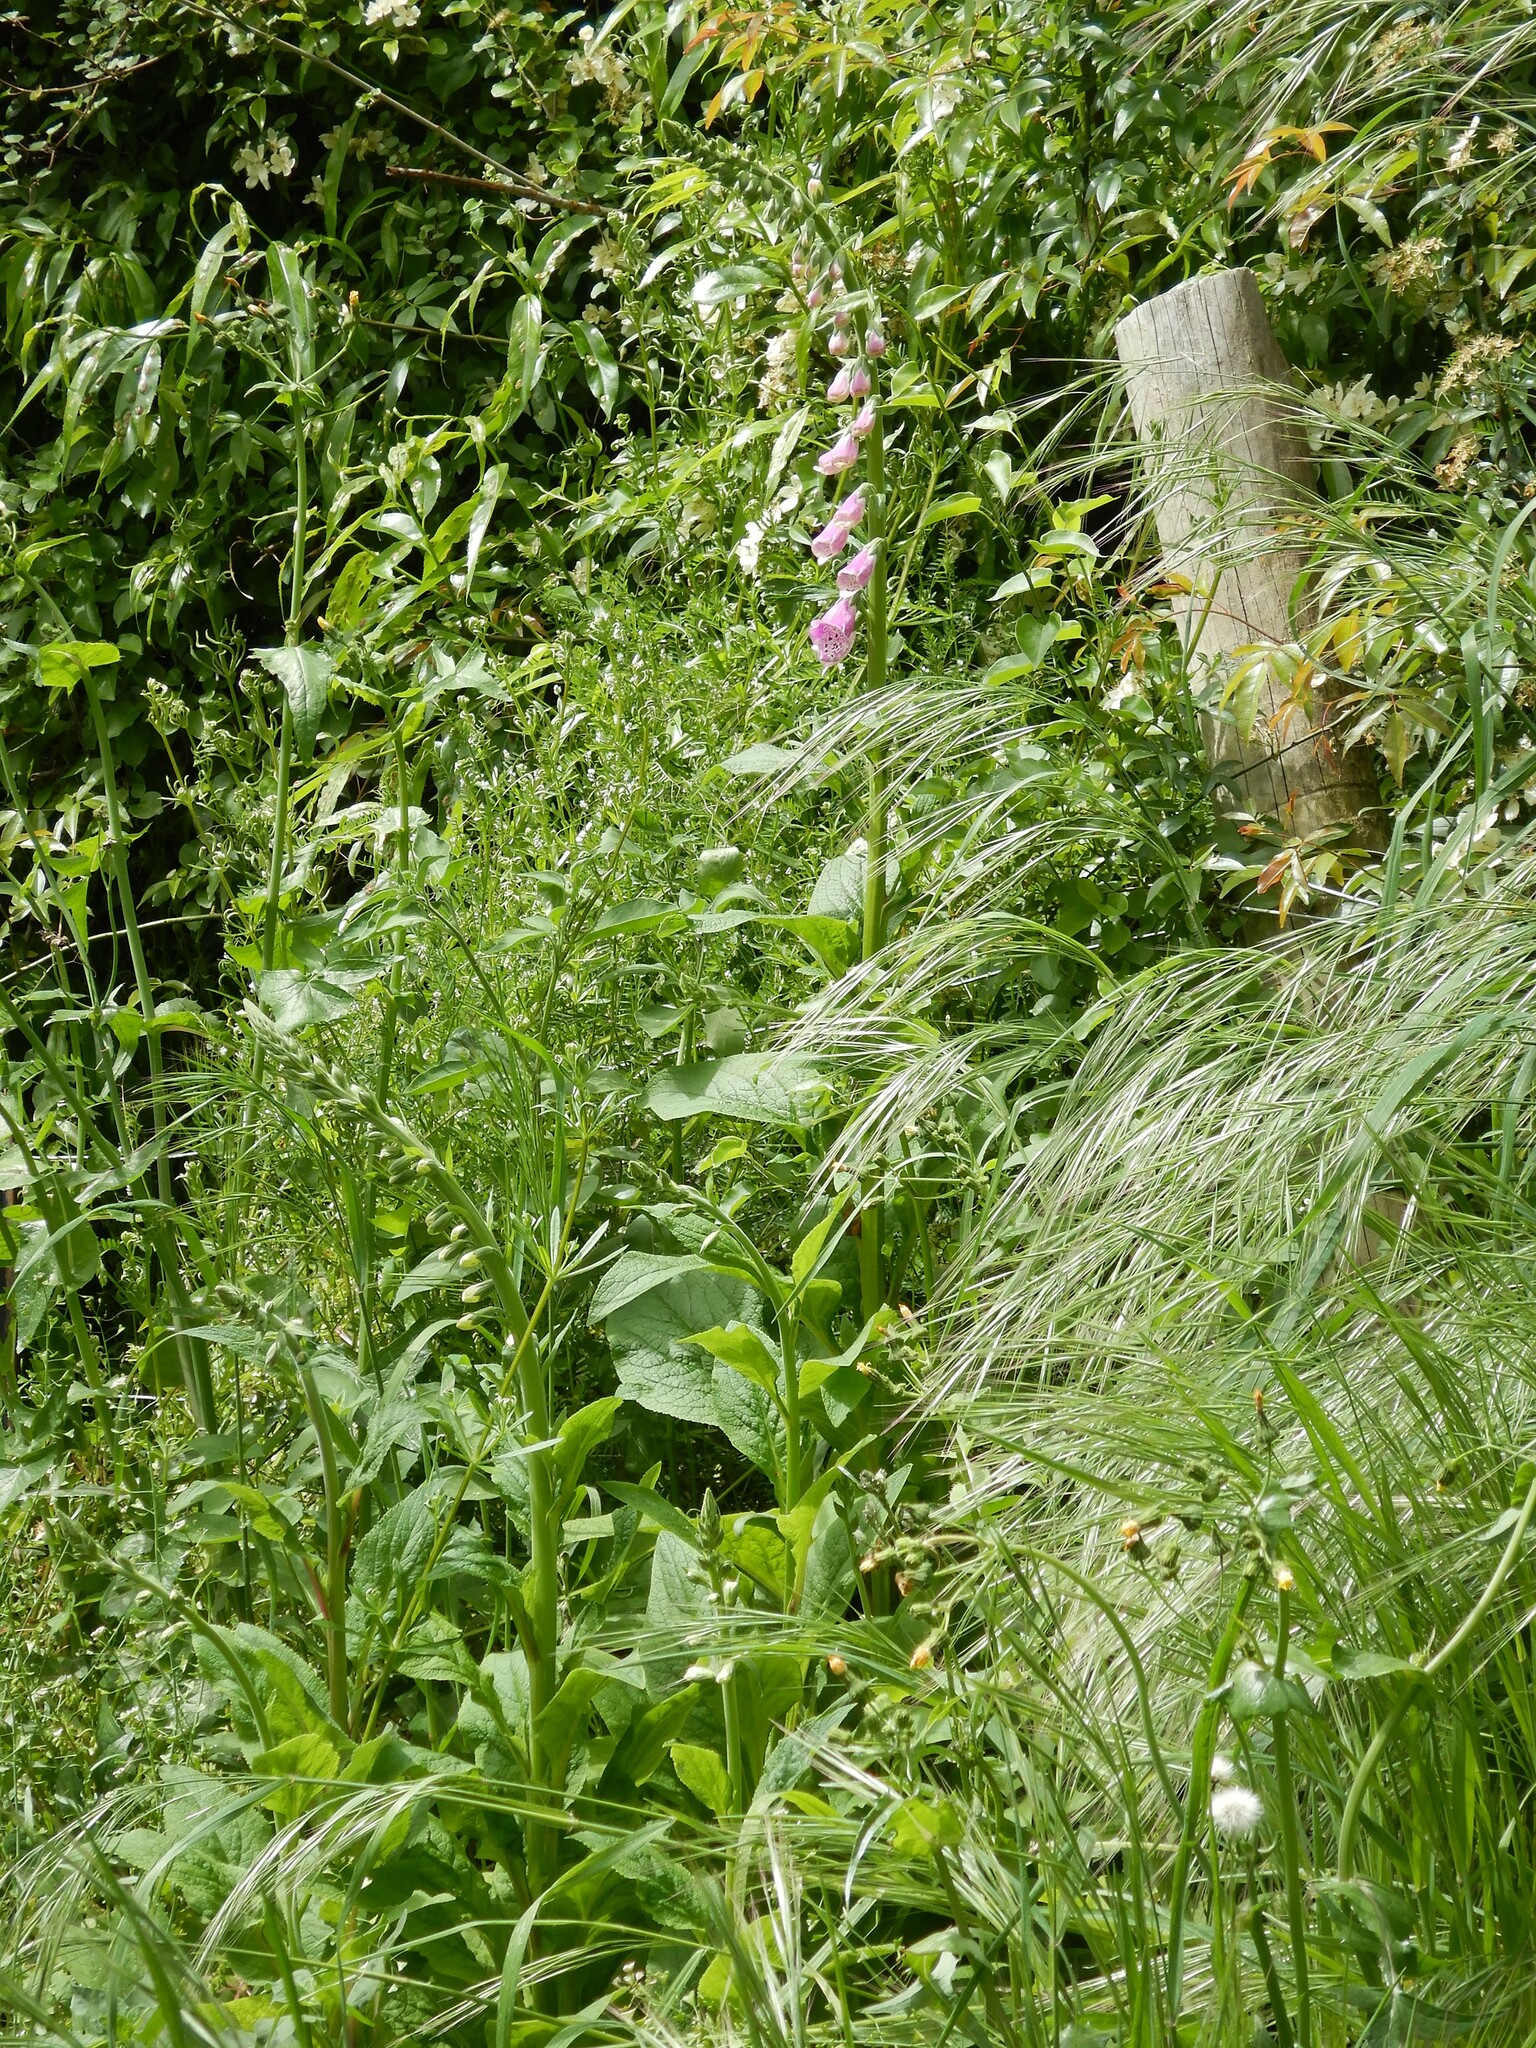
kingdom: Plantae
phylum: Tracheophyta
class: Magnoliopsida
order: Lamiales
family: Plantaginaceae
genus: Digitalis
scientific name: Digitalis purpurea
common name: Foxglove
